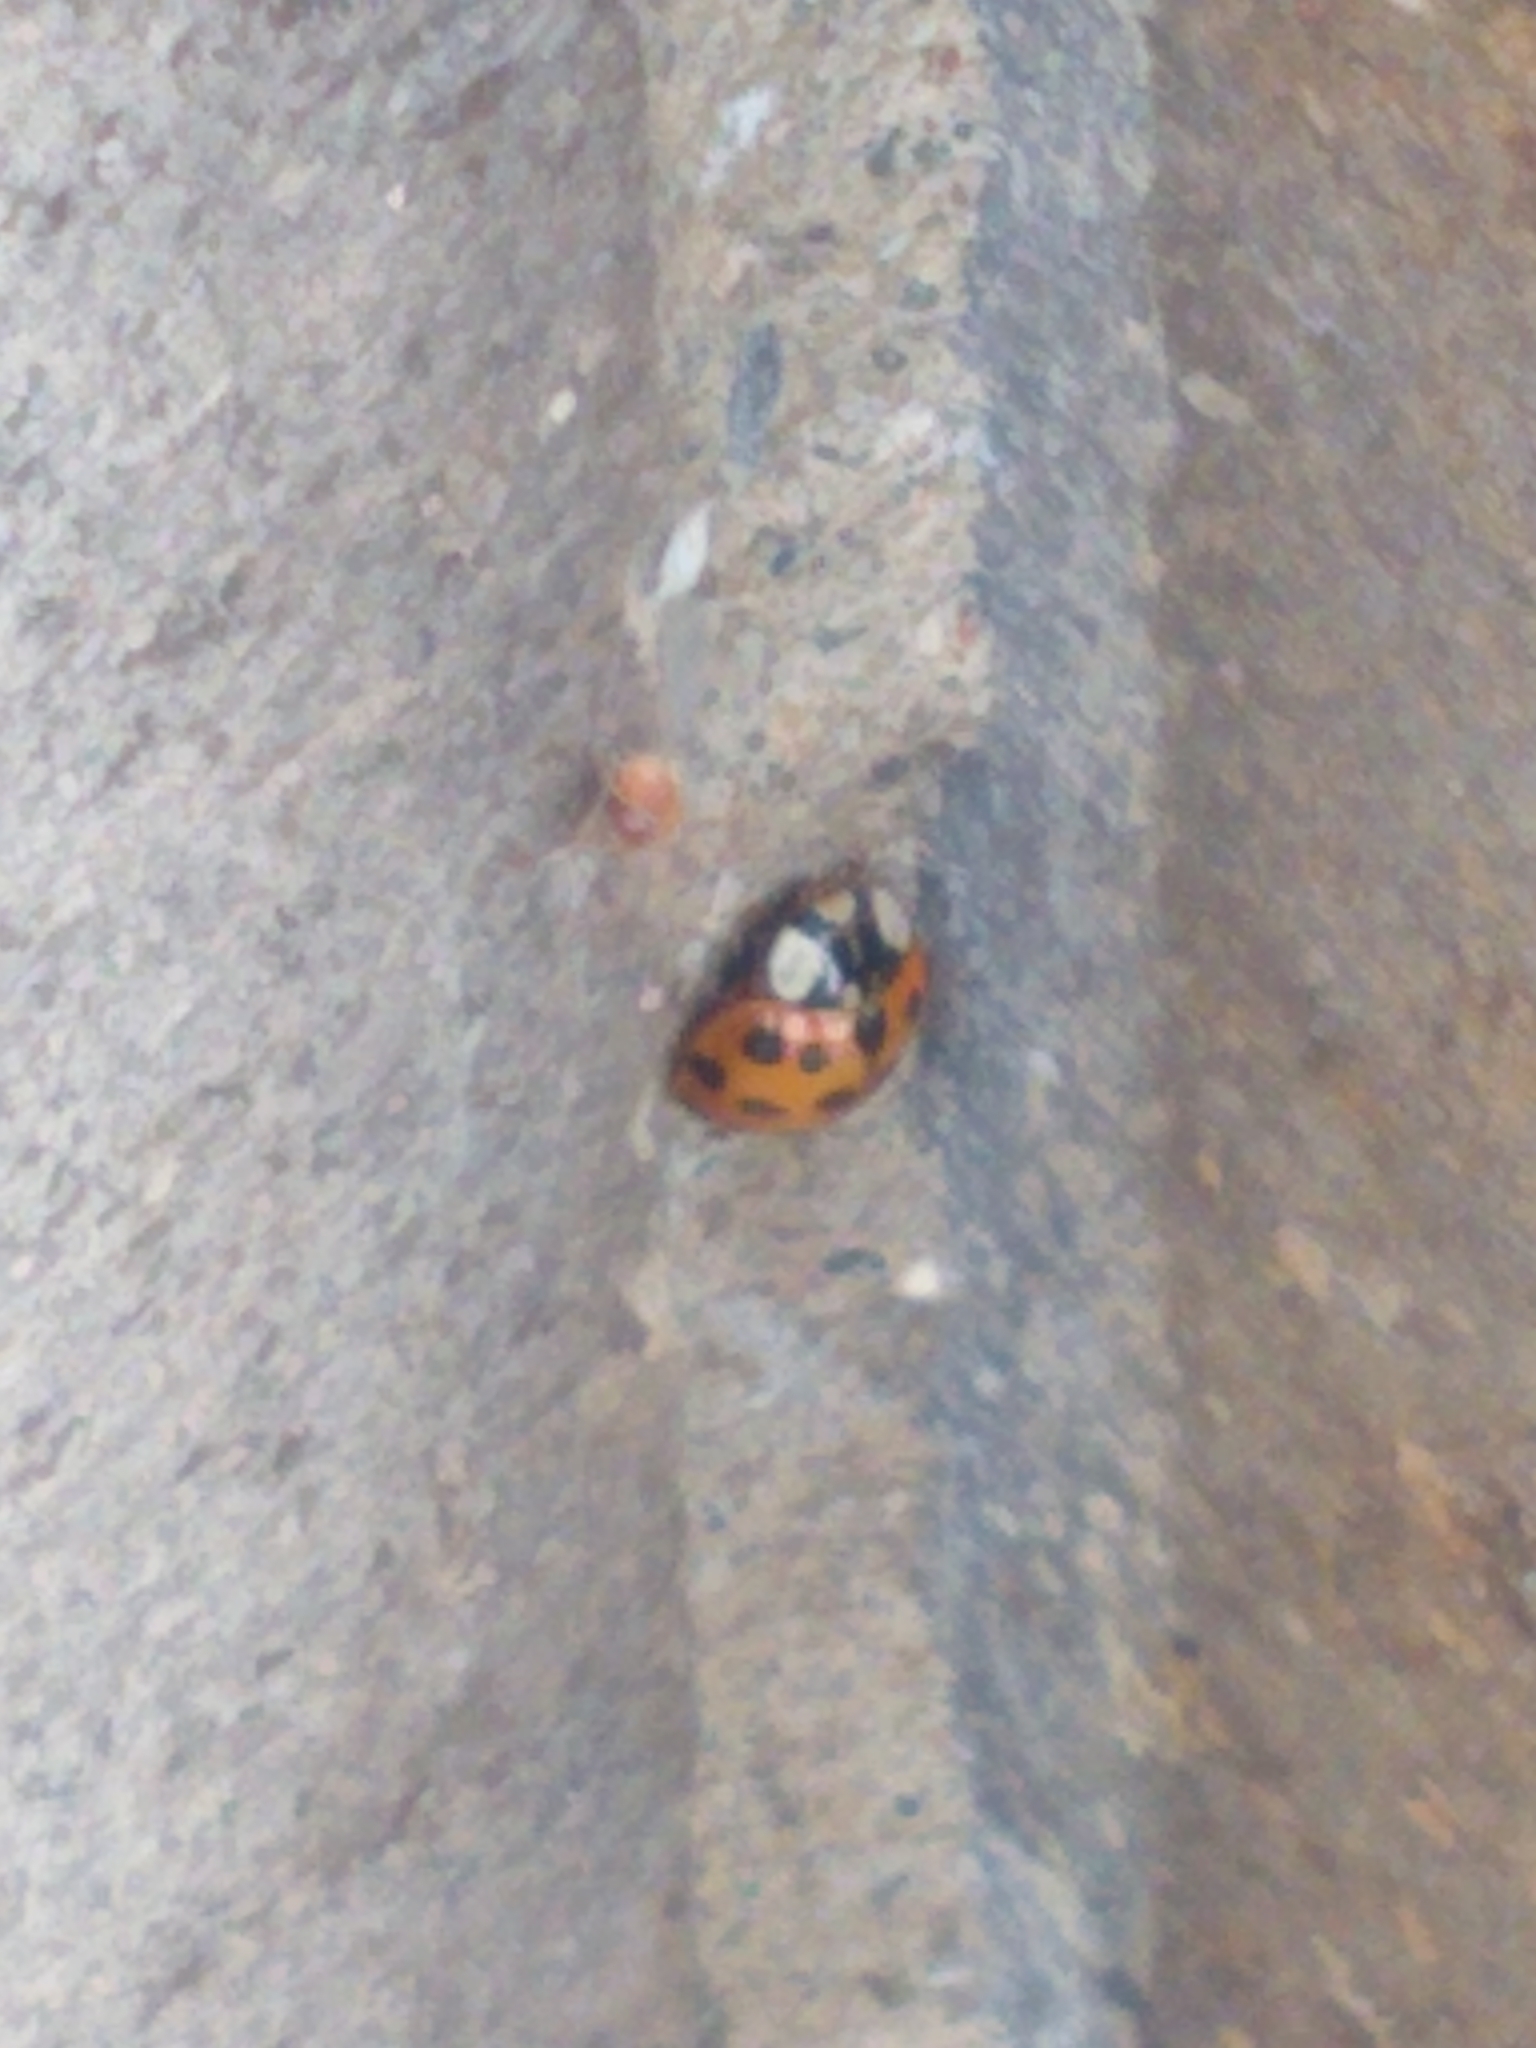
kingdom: Animalia
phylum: Arthropoda
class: Insecta
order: Coleoptera
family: Coccinellidae
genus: Harmonia
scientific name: Harmonia axyridis
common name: Harlequin ladybird
